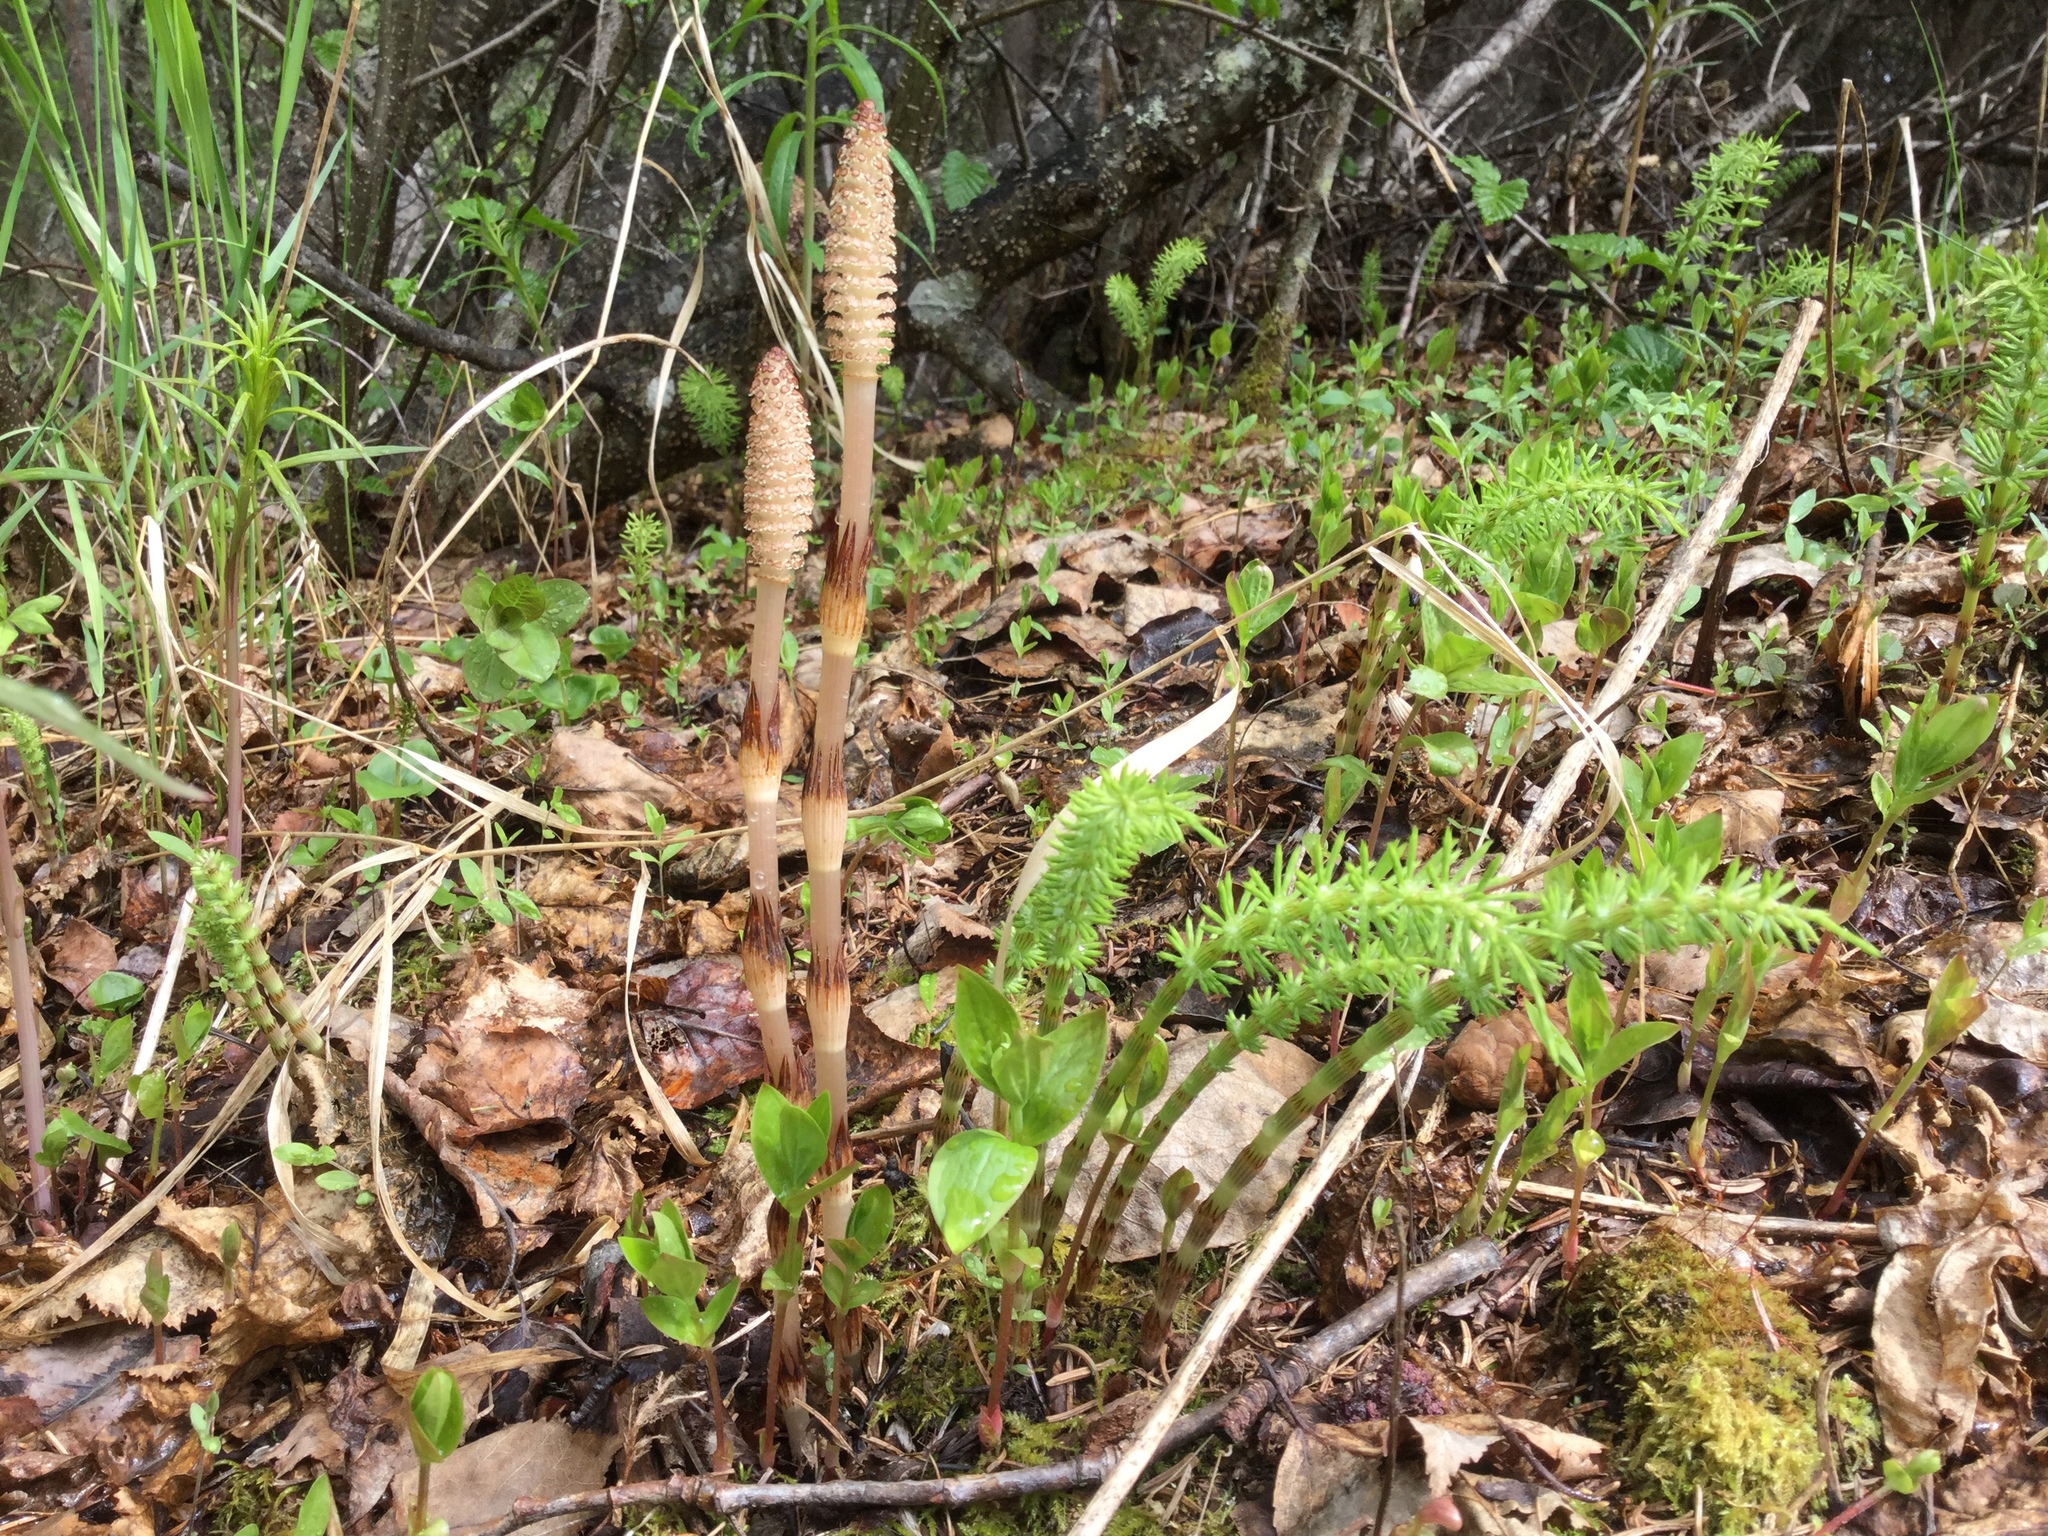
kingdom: Plantae
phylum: Tracheophyta
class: Polypodiopsida
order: Equisetales
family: Equisetaceae
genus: Equisetum
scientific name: Equisetum arvense
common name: Field horsetail
